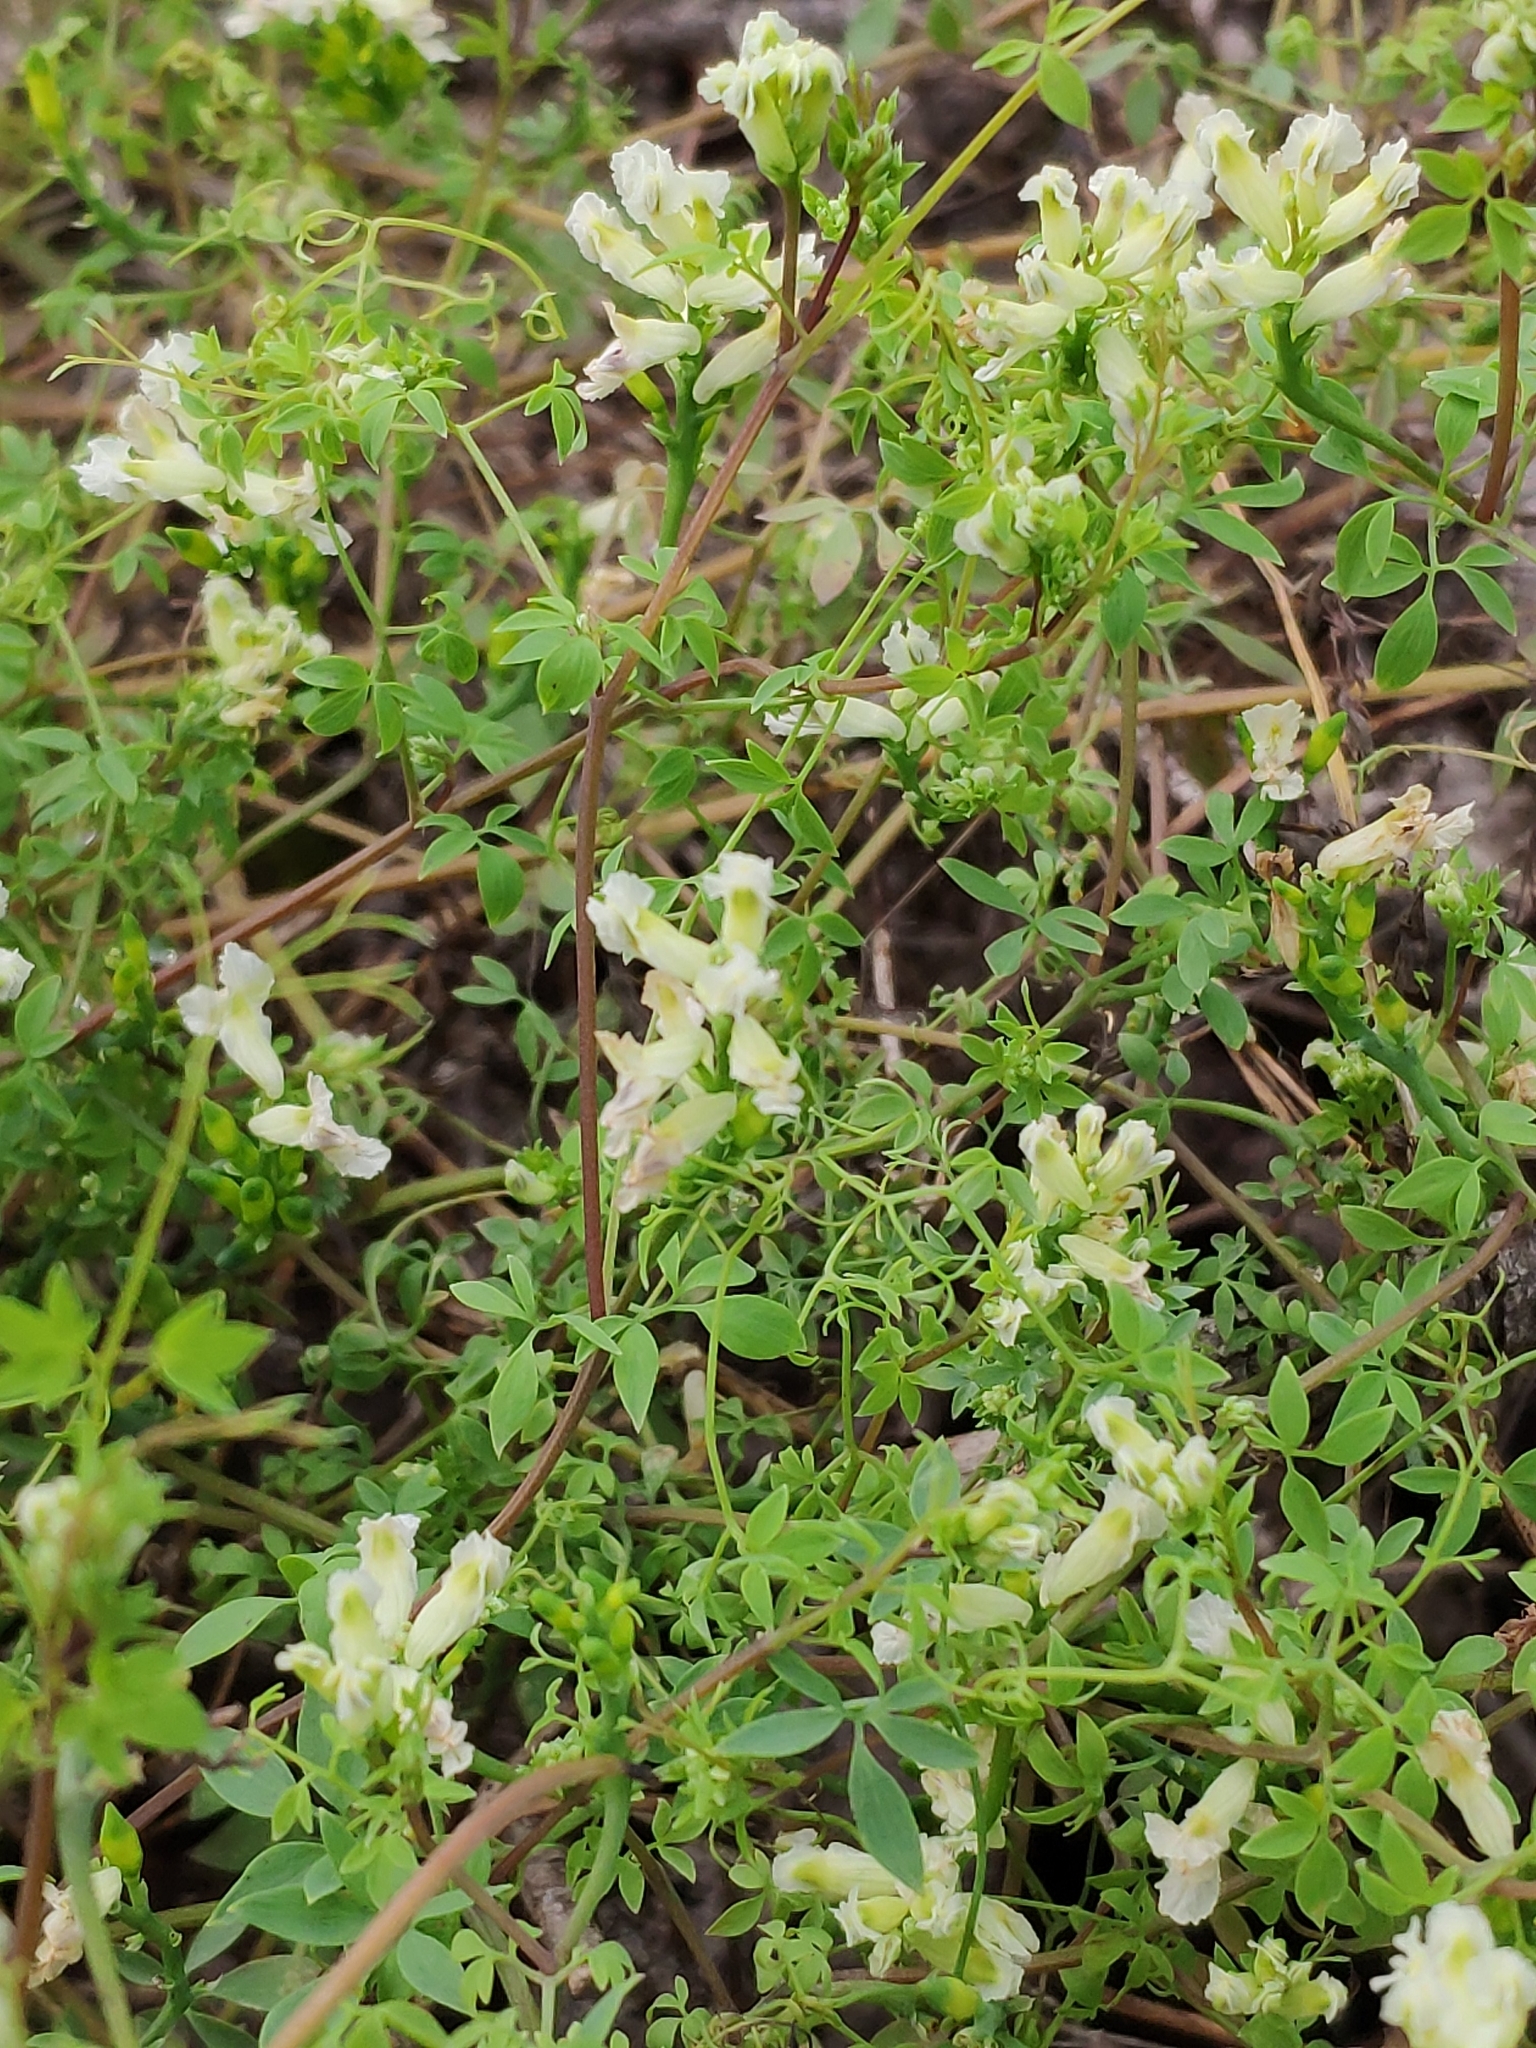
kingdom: Plantae
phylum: Tracheophyta
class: Magnoliopsida
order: Ranunculales
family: Papaveraceae
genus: Ceratocapnos
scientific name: Ceratocapnos claviculata
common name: Climbing corydalis
